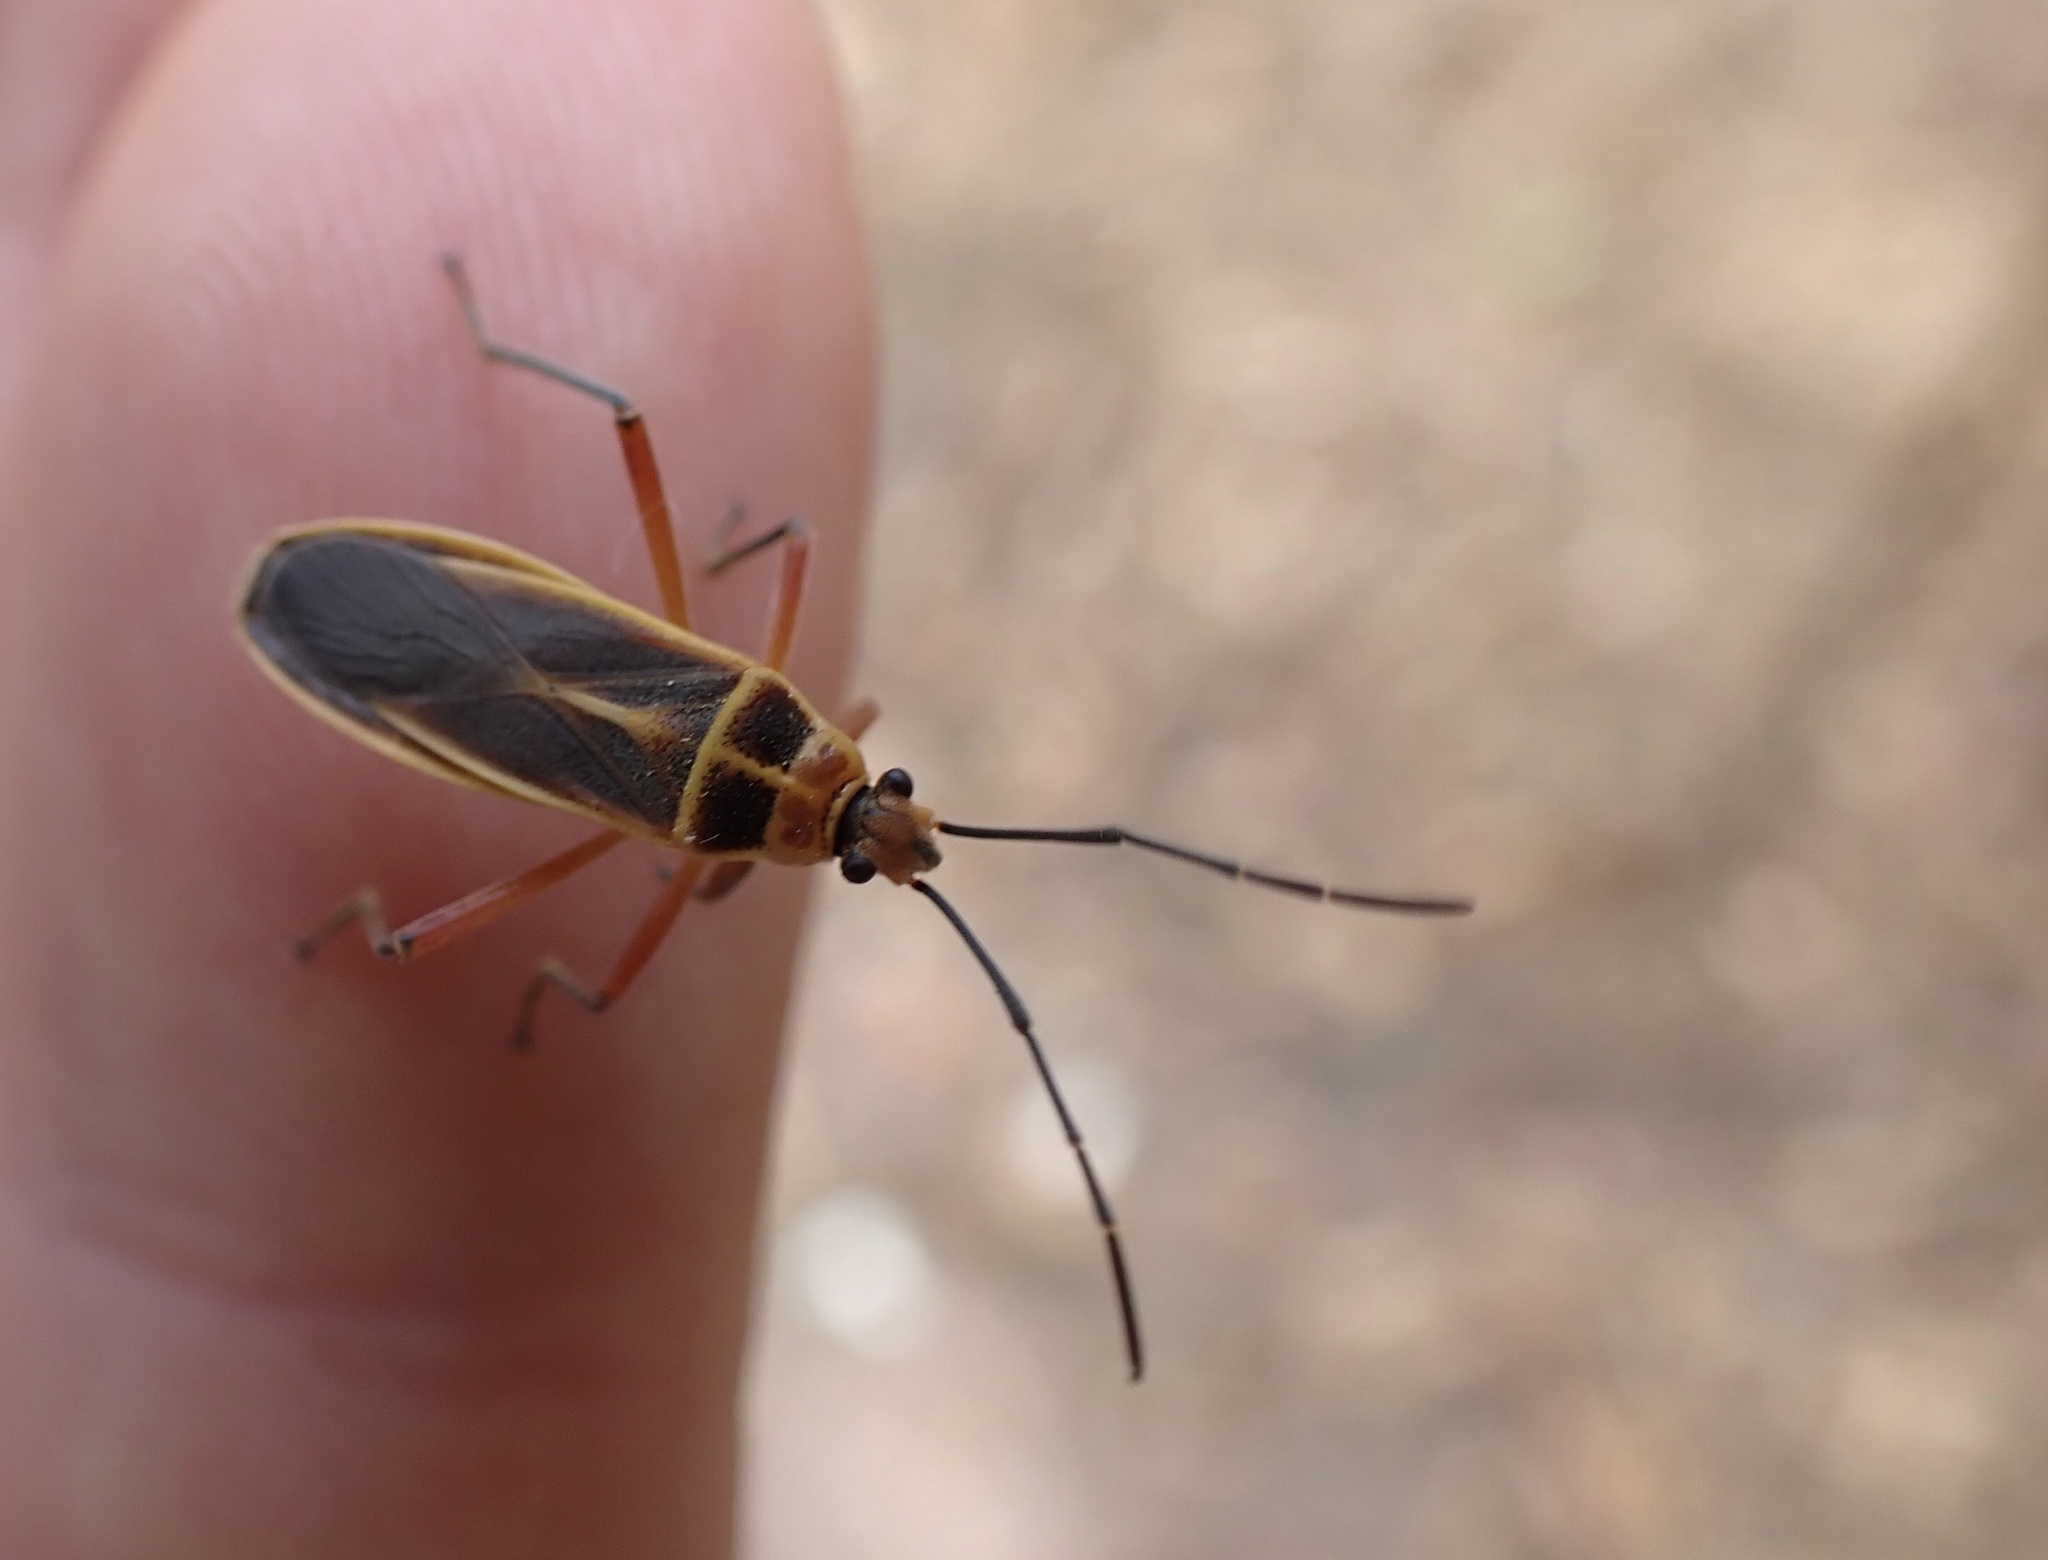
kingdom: Animalia
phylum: Arthropoda
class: Insecta
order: Hemiptera
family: Largidae
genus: Stenomacra
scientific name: Stenomacra marginella
